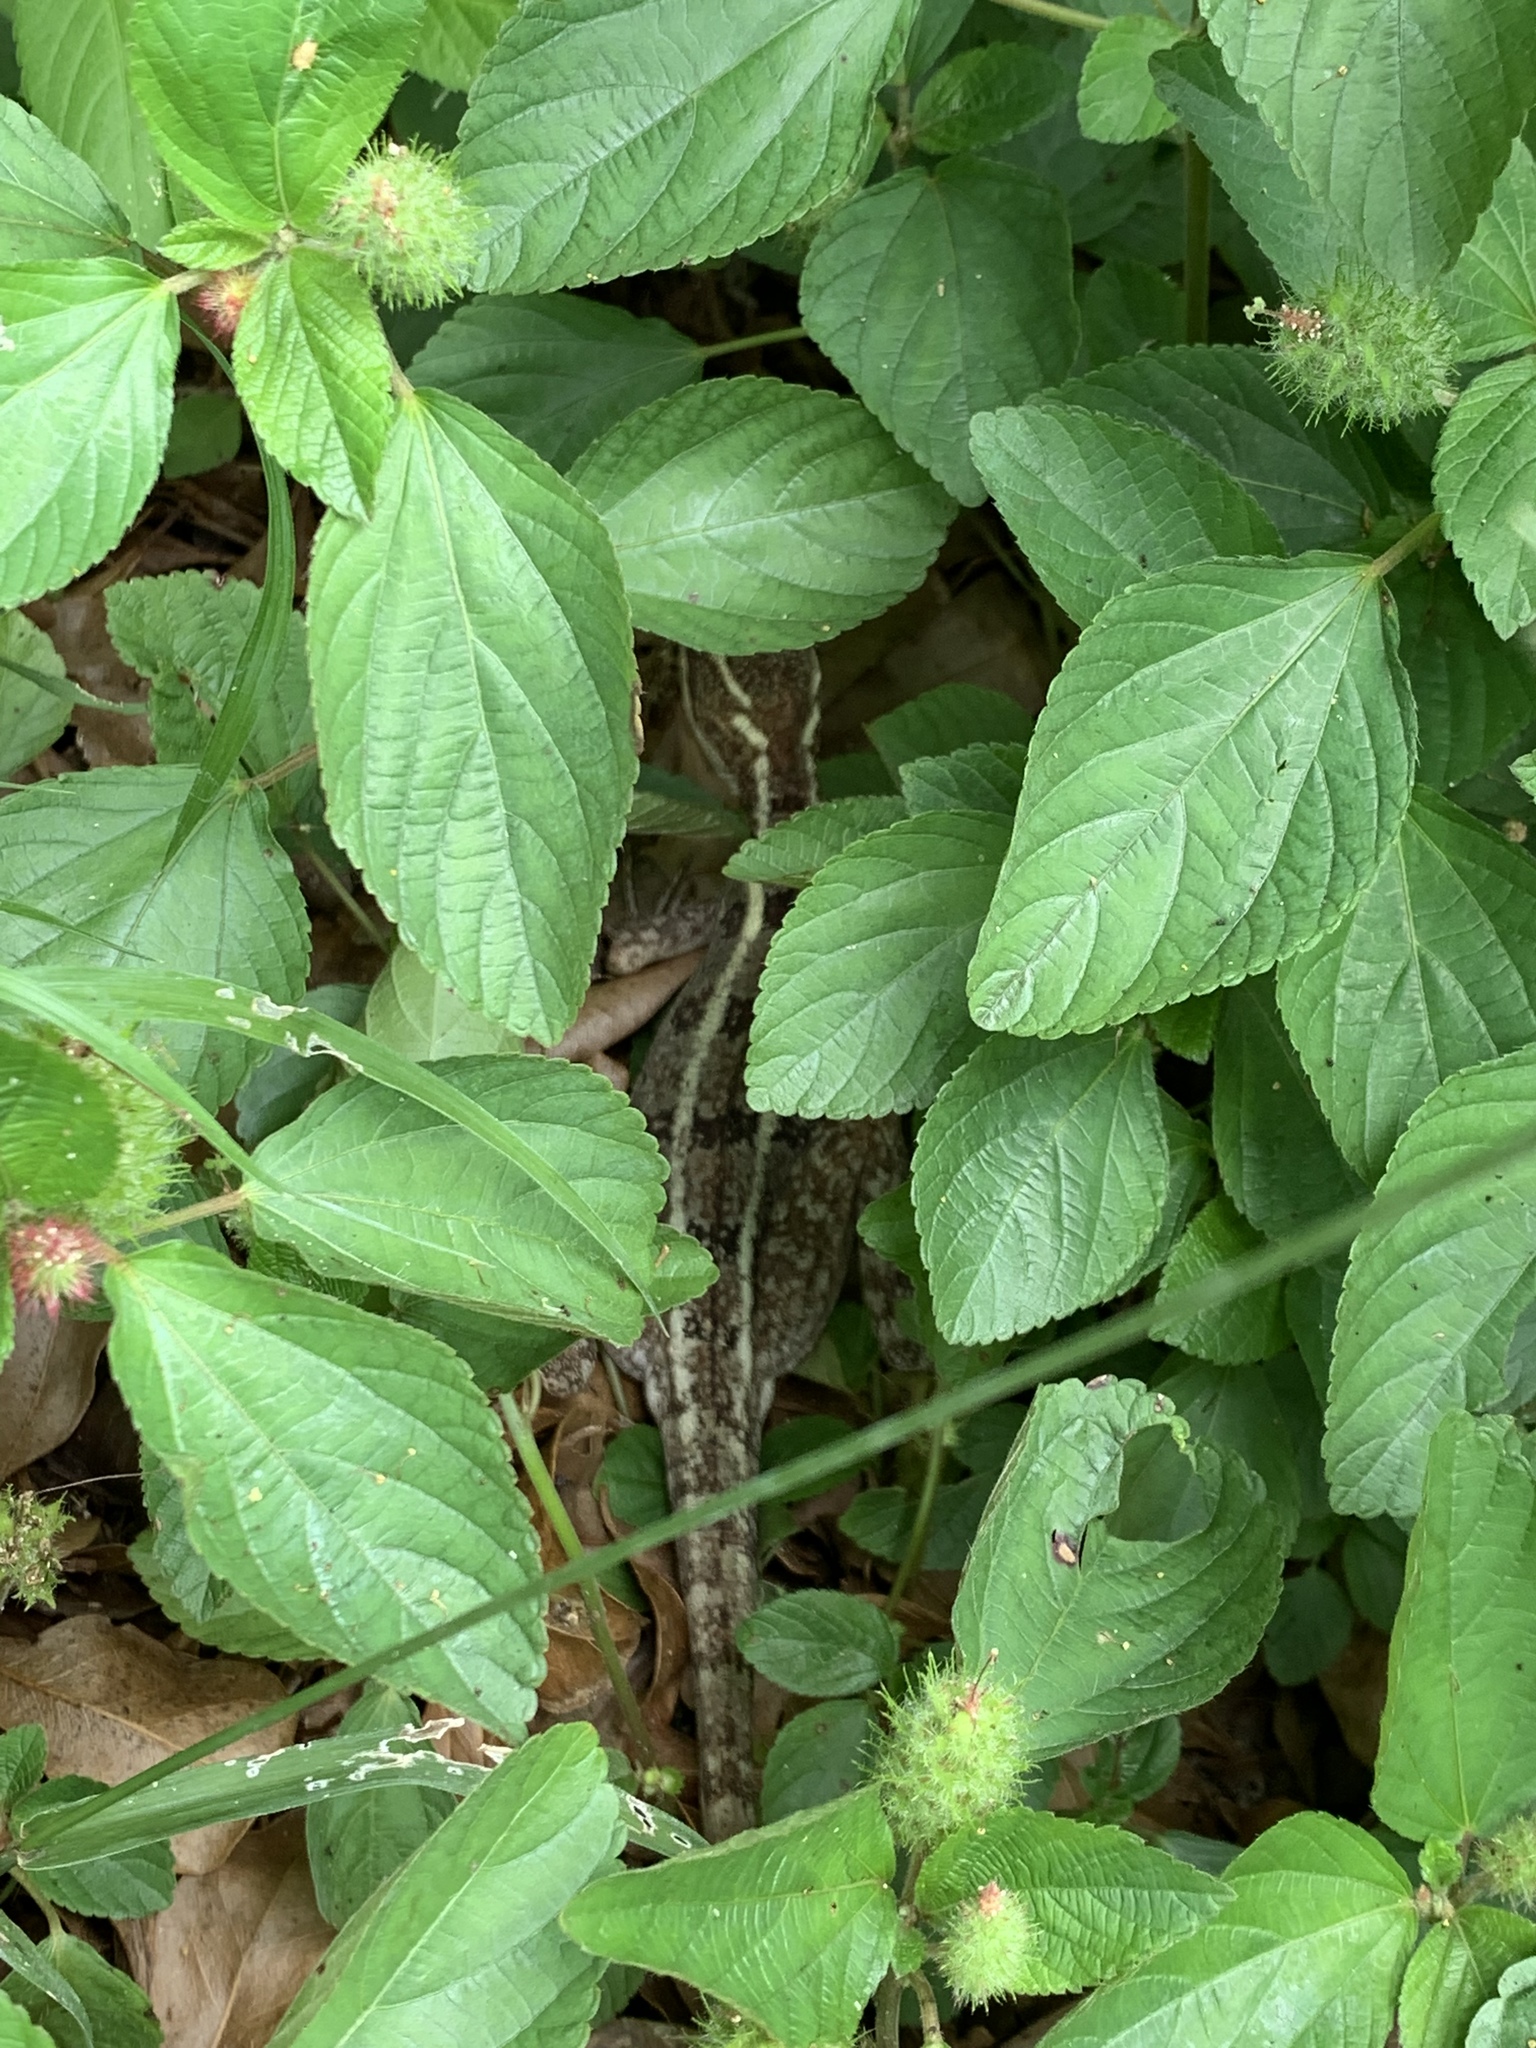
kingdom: Animalia
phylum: Chordata
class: Squamata
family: Corytophanidae
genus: Basiliscus
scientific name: Basiliscus vittatus
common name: Brown basilisk
